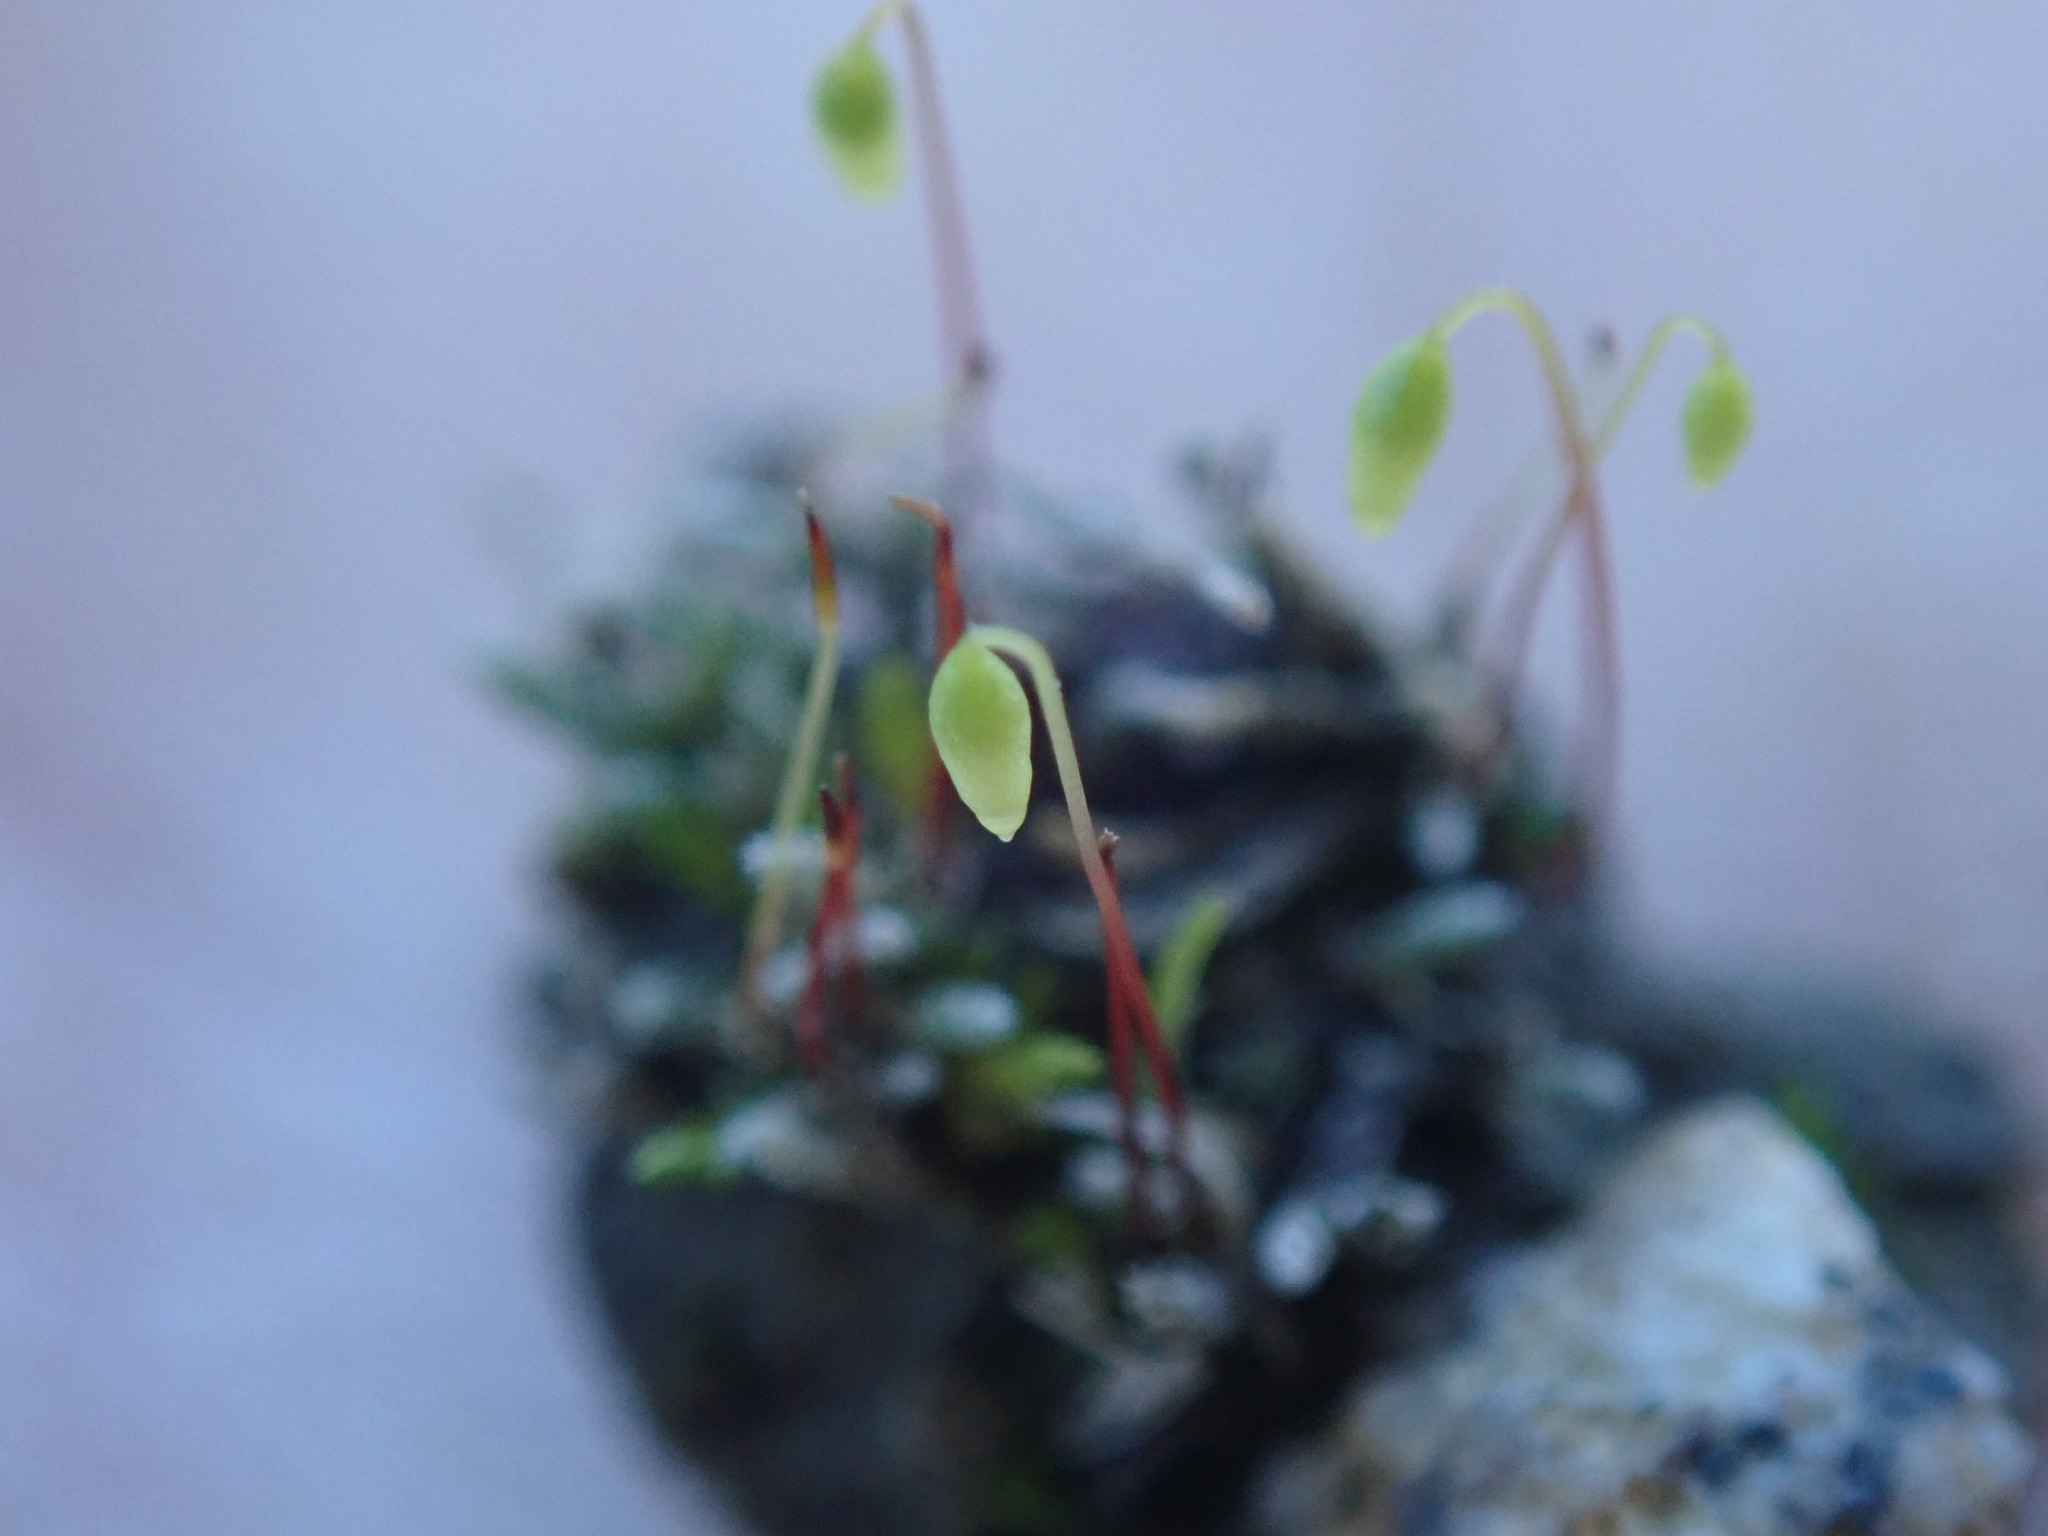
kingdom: Plantae
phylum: Bryophyta
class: Bryopsida
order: Bryales
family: Bryaceae
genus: Bryum
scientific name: Bryum argenteum
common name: Silver-moss
